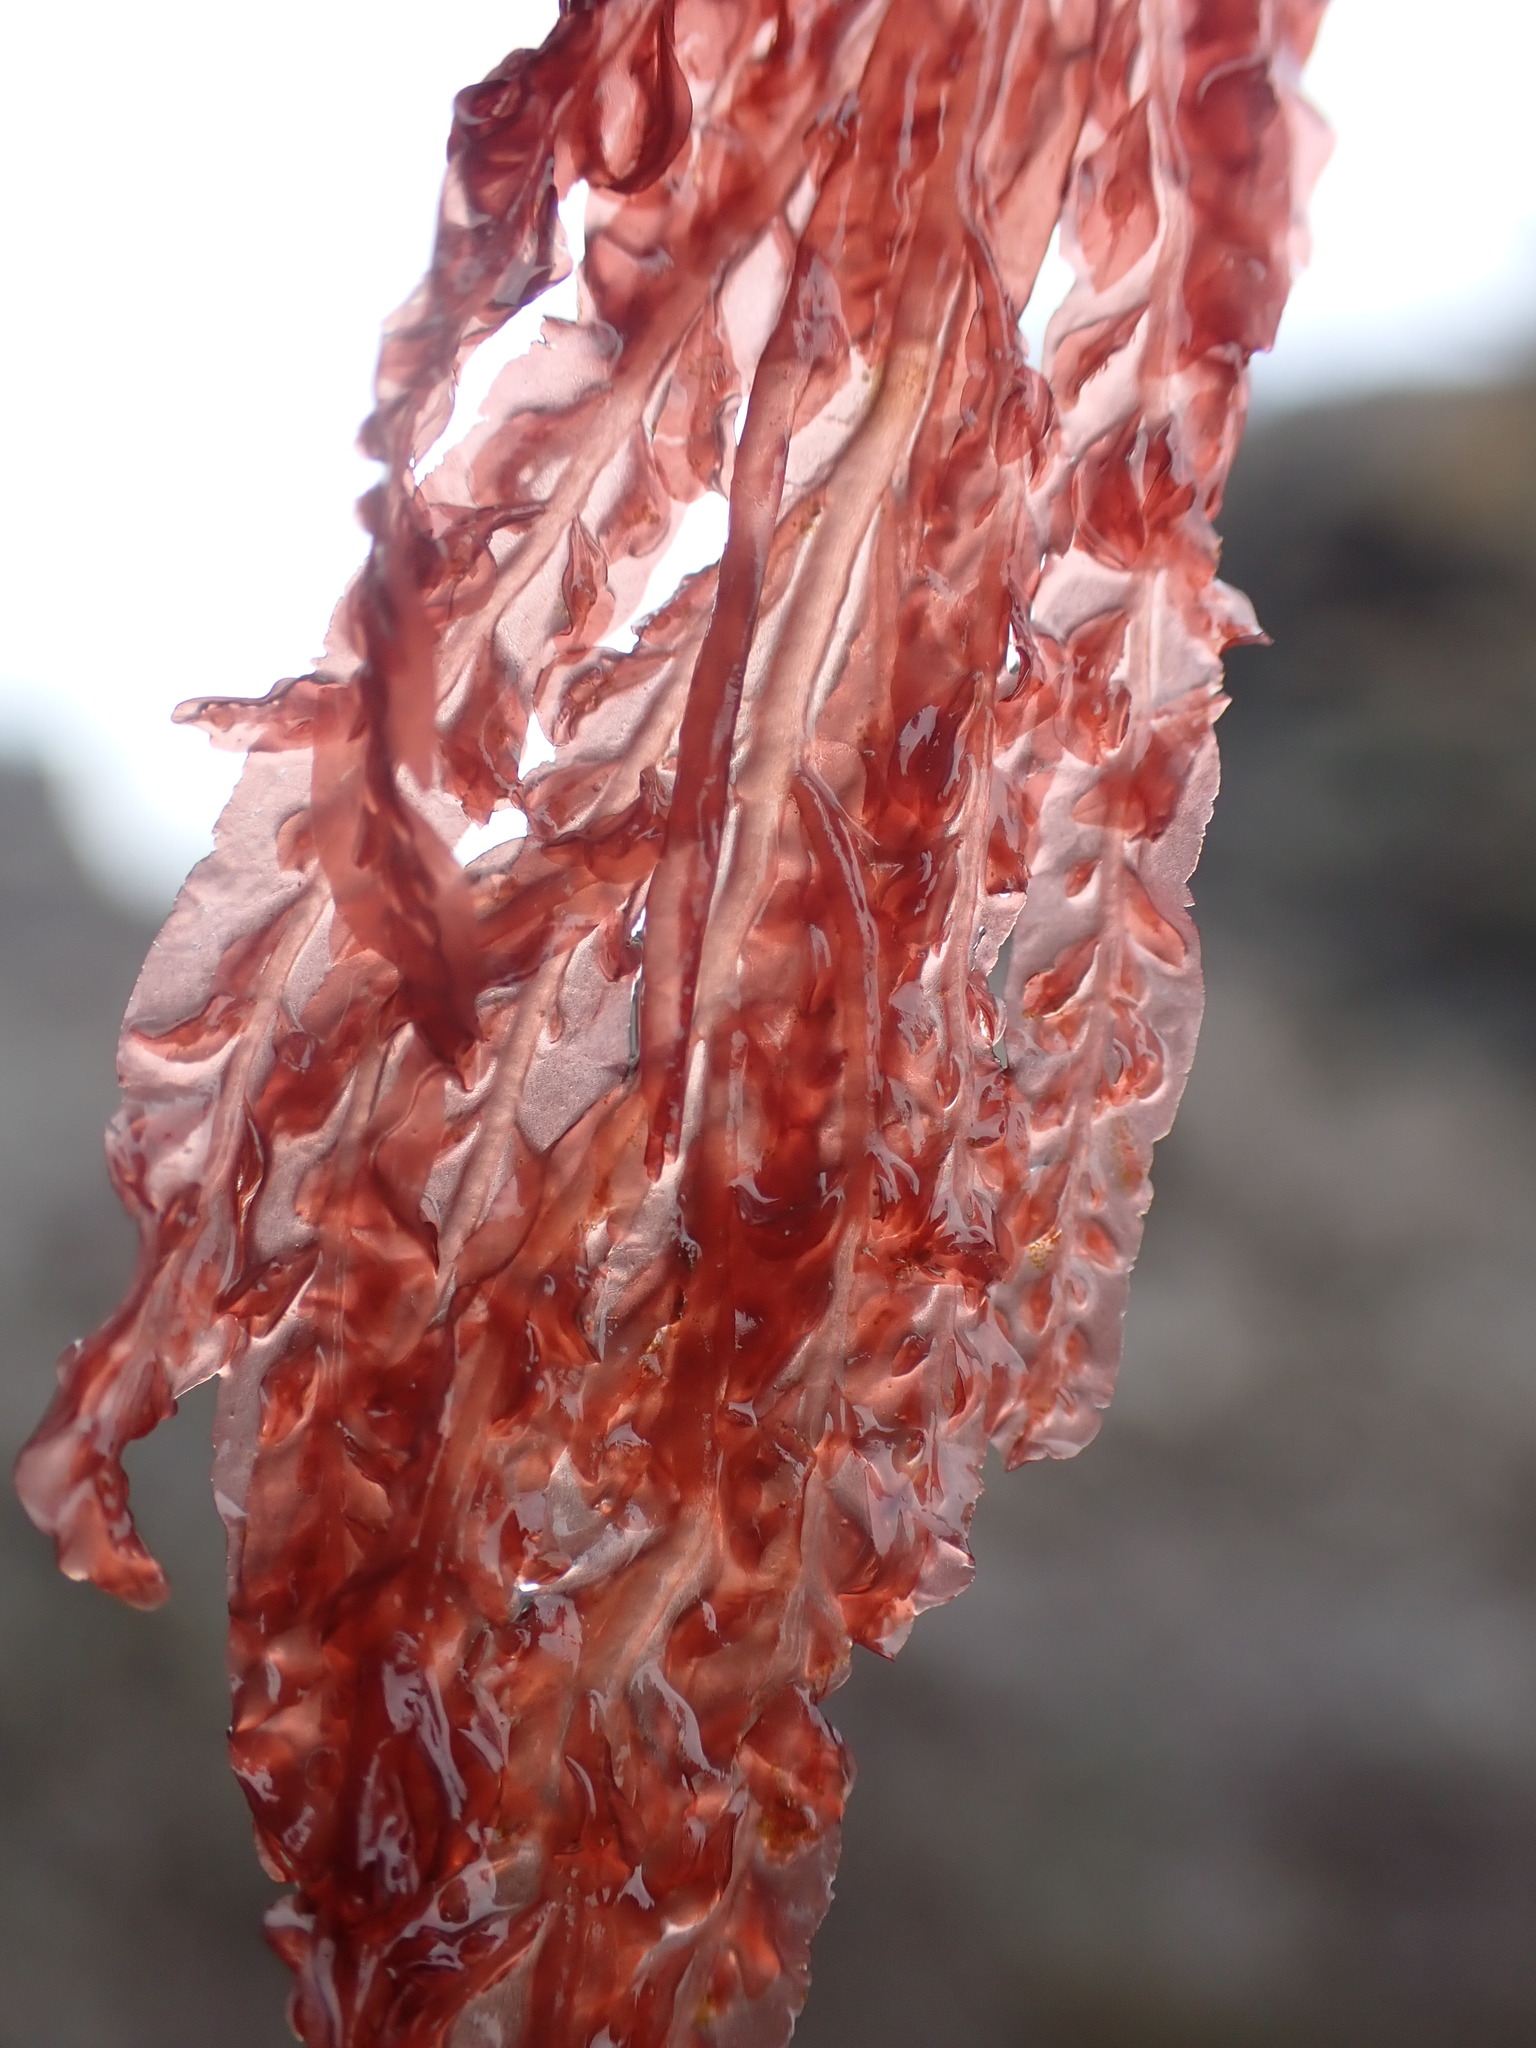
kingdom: Plantae
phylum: Rhodophyta
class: Florideophyceae
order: Ceramiales
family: Delesseriaceae
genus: Cumathamnion
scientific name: Cumathamnion decipiens
